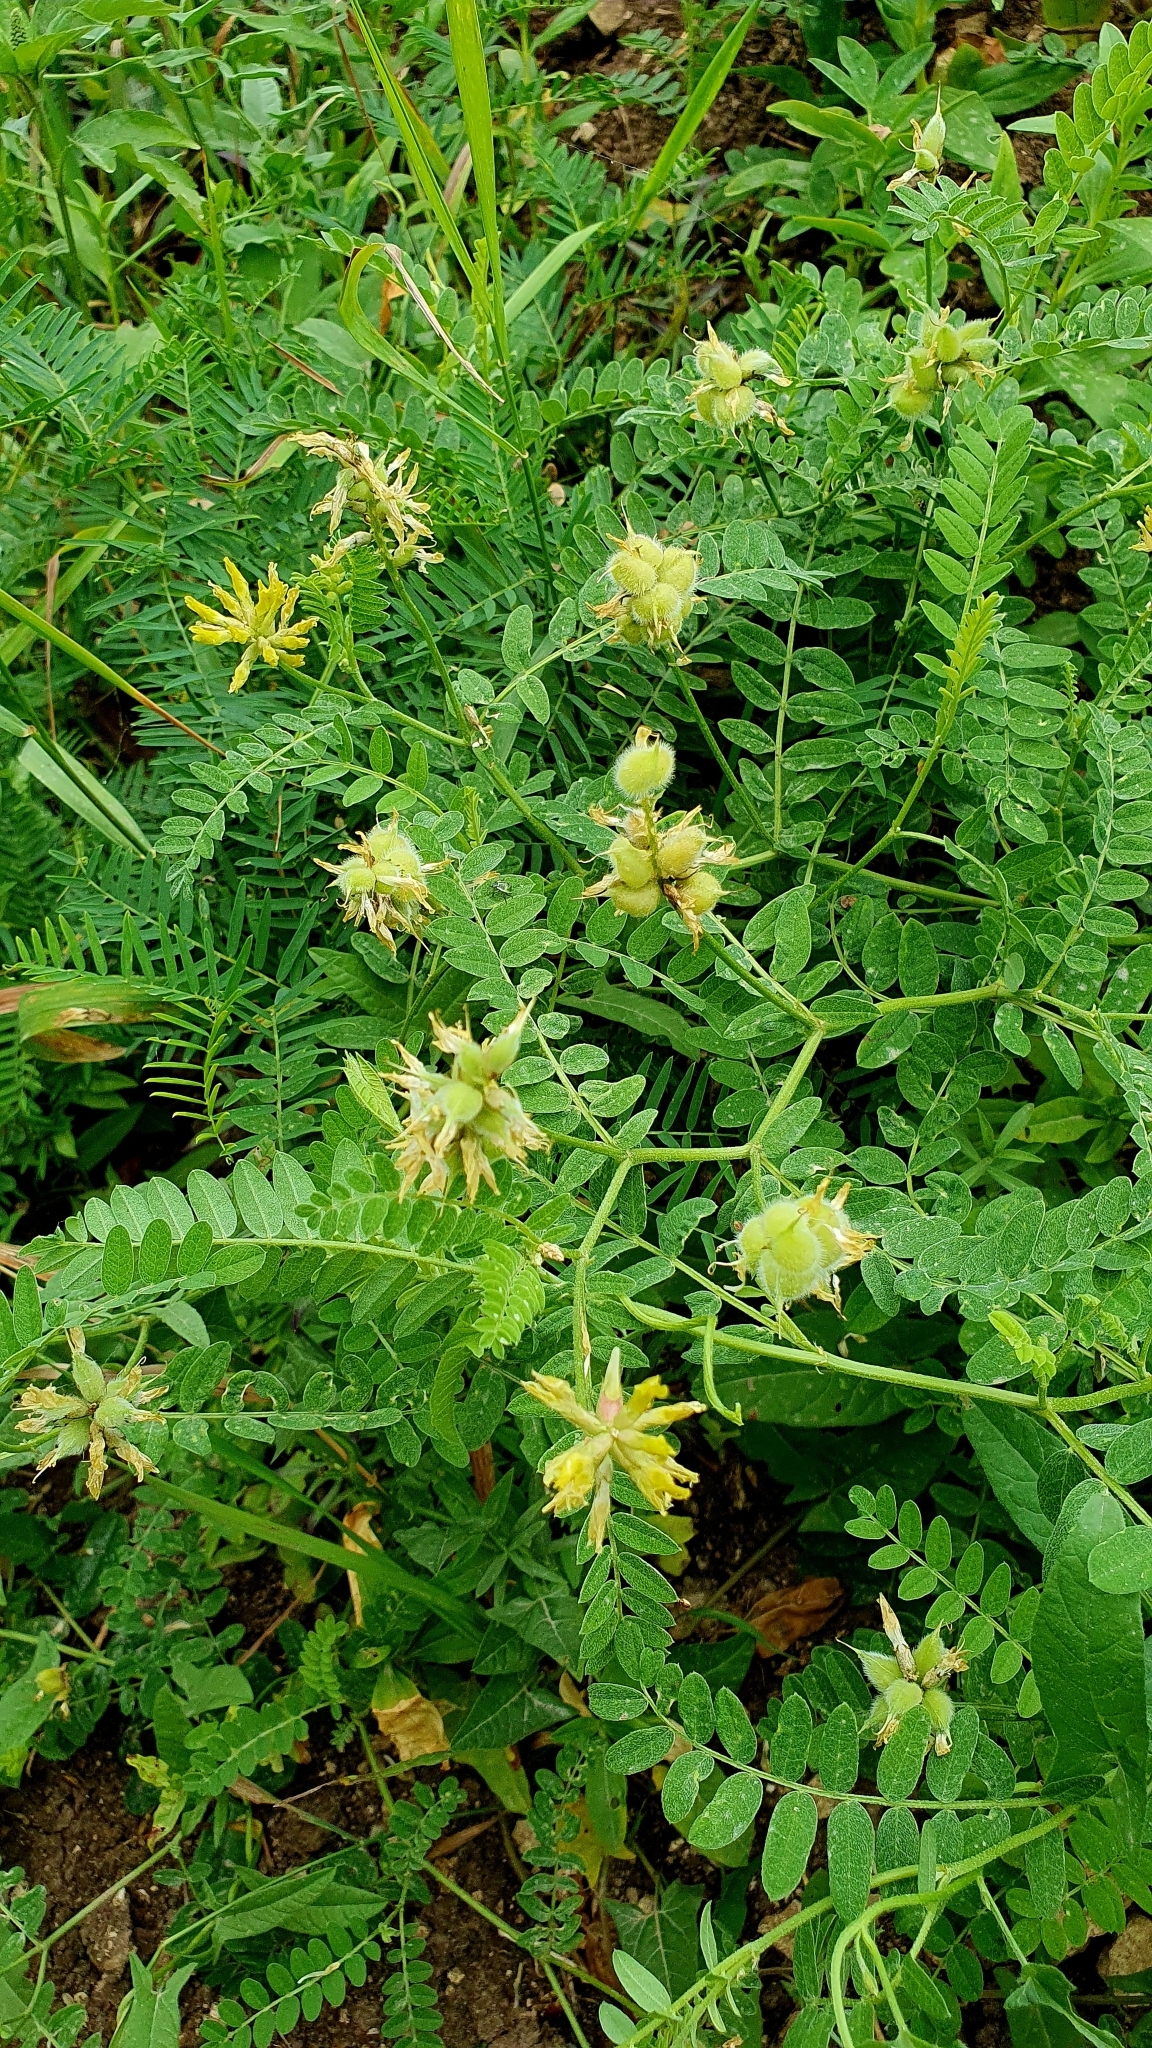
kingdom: Plantae
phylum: Tracheophyta
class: Magnoliopsida
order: Fabales
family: Fabaceae
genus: Astragalus
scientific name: Astragalus cicer
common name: Chick-pea milk-vetch
